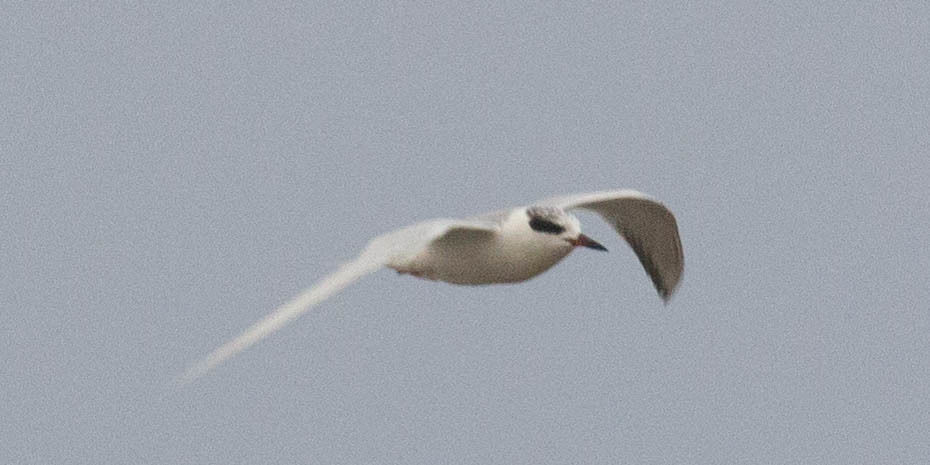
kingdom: Animalia
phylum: Chordata
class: Aves
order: Charadriiformes
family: Laridae
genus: Sterna
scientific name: Sterna forsteri
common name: Forster's tern
